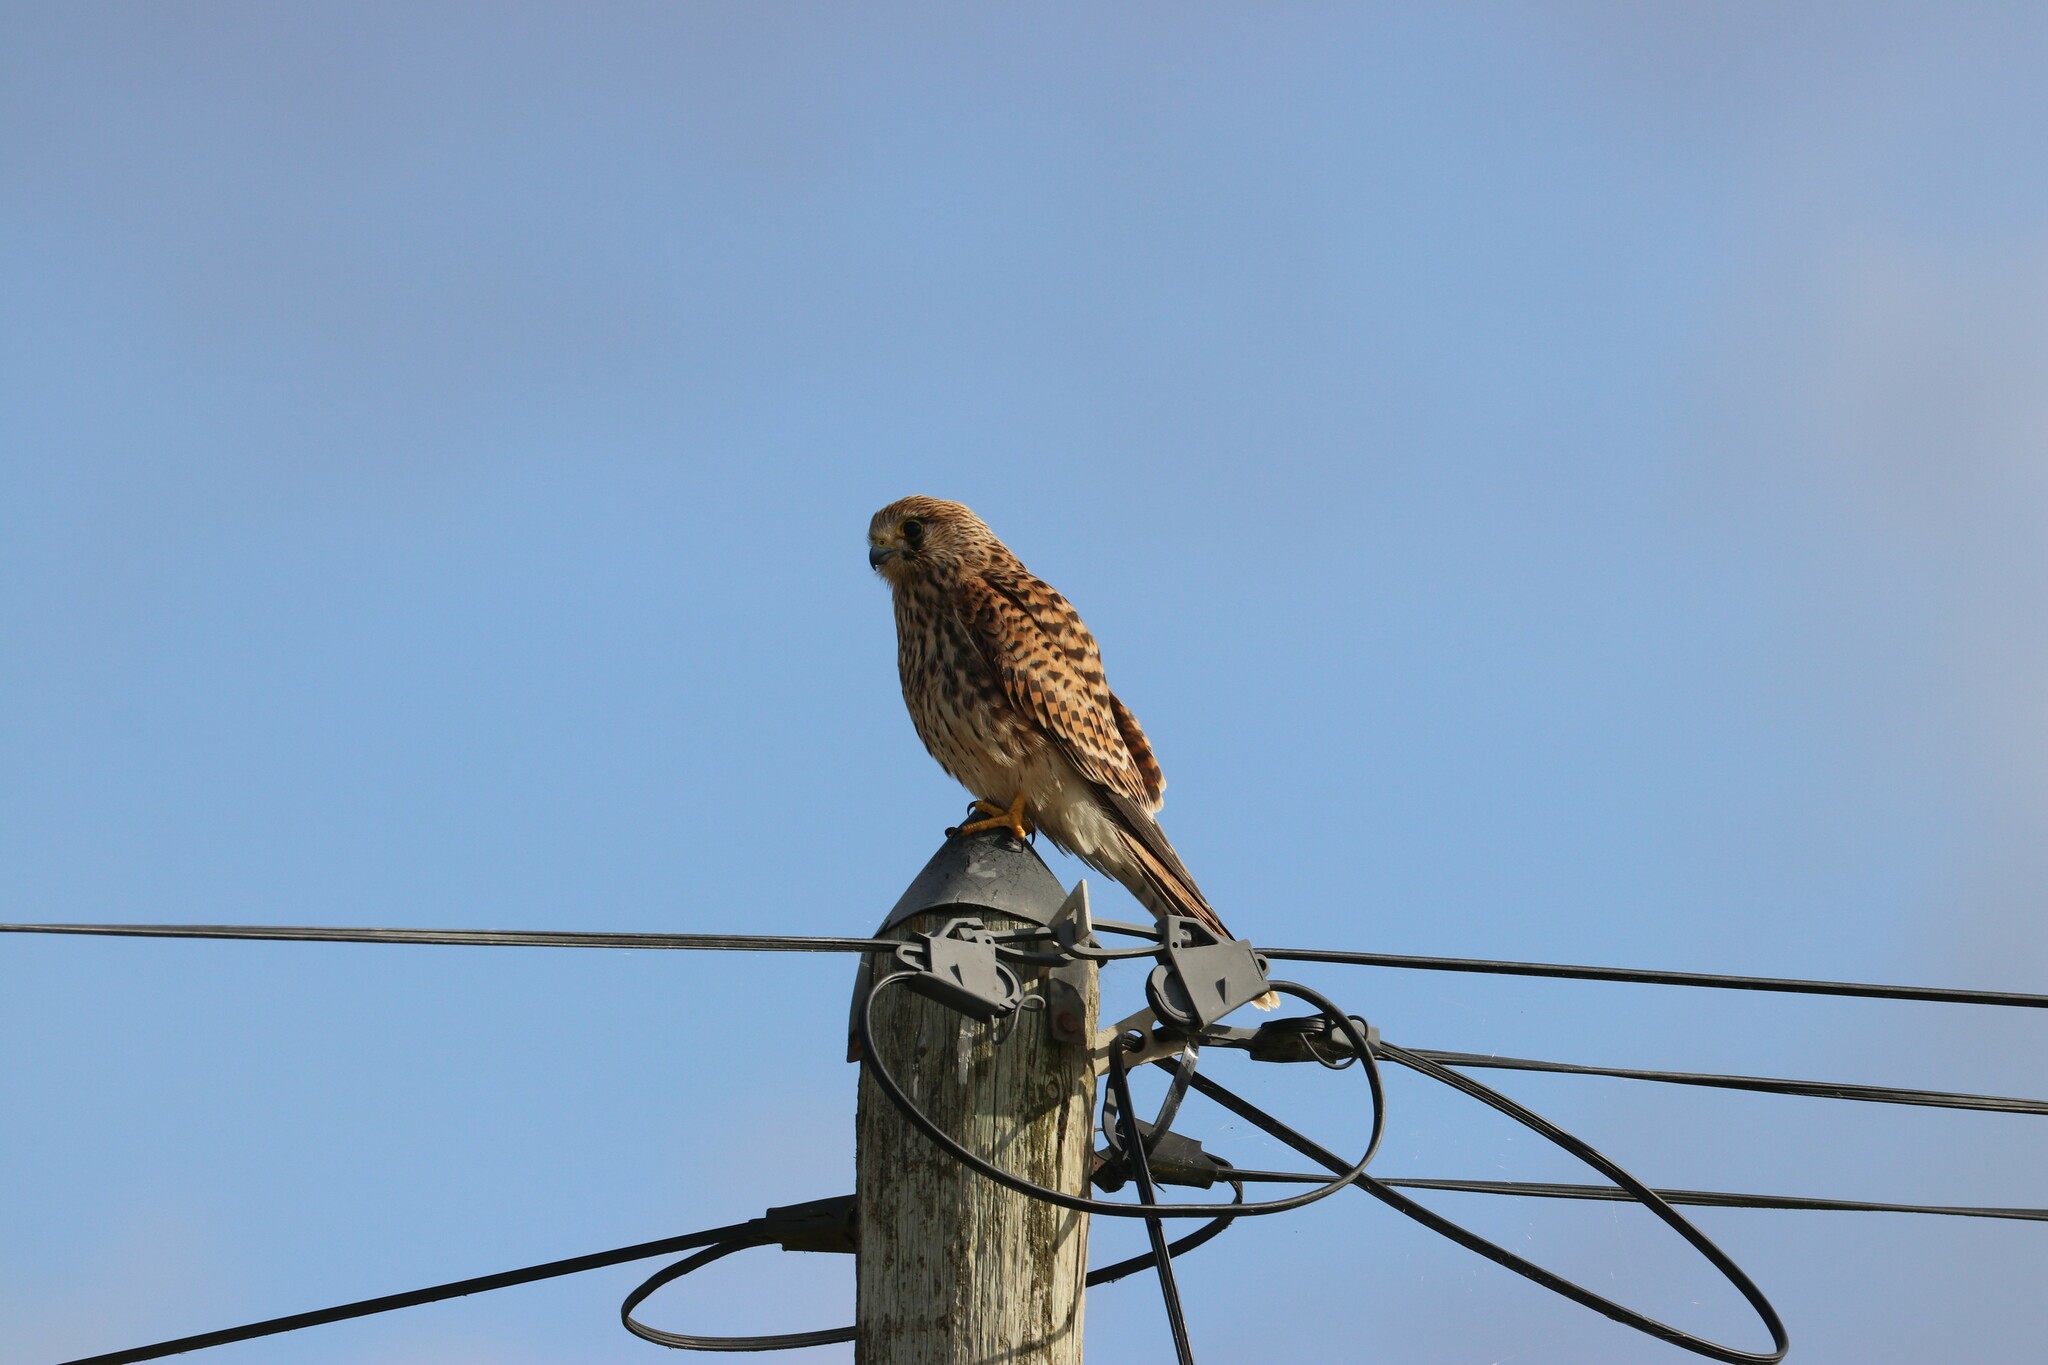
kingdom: Animalia
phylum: Chordata
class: Aves
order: Falconiformes
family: Falconidae
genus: Falco
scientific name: Falco tinnunculus
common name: Common kestrel
